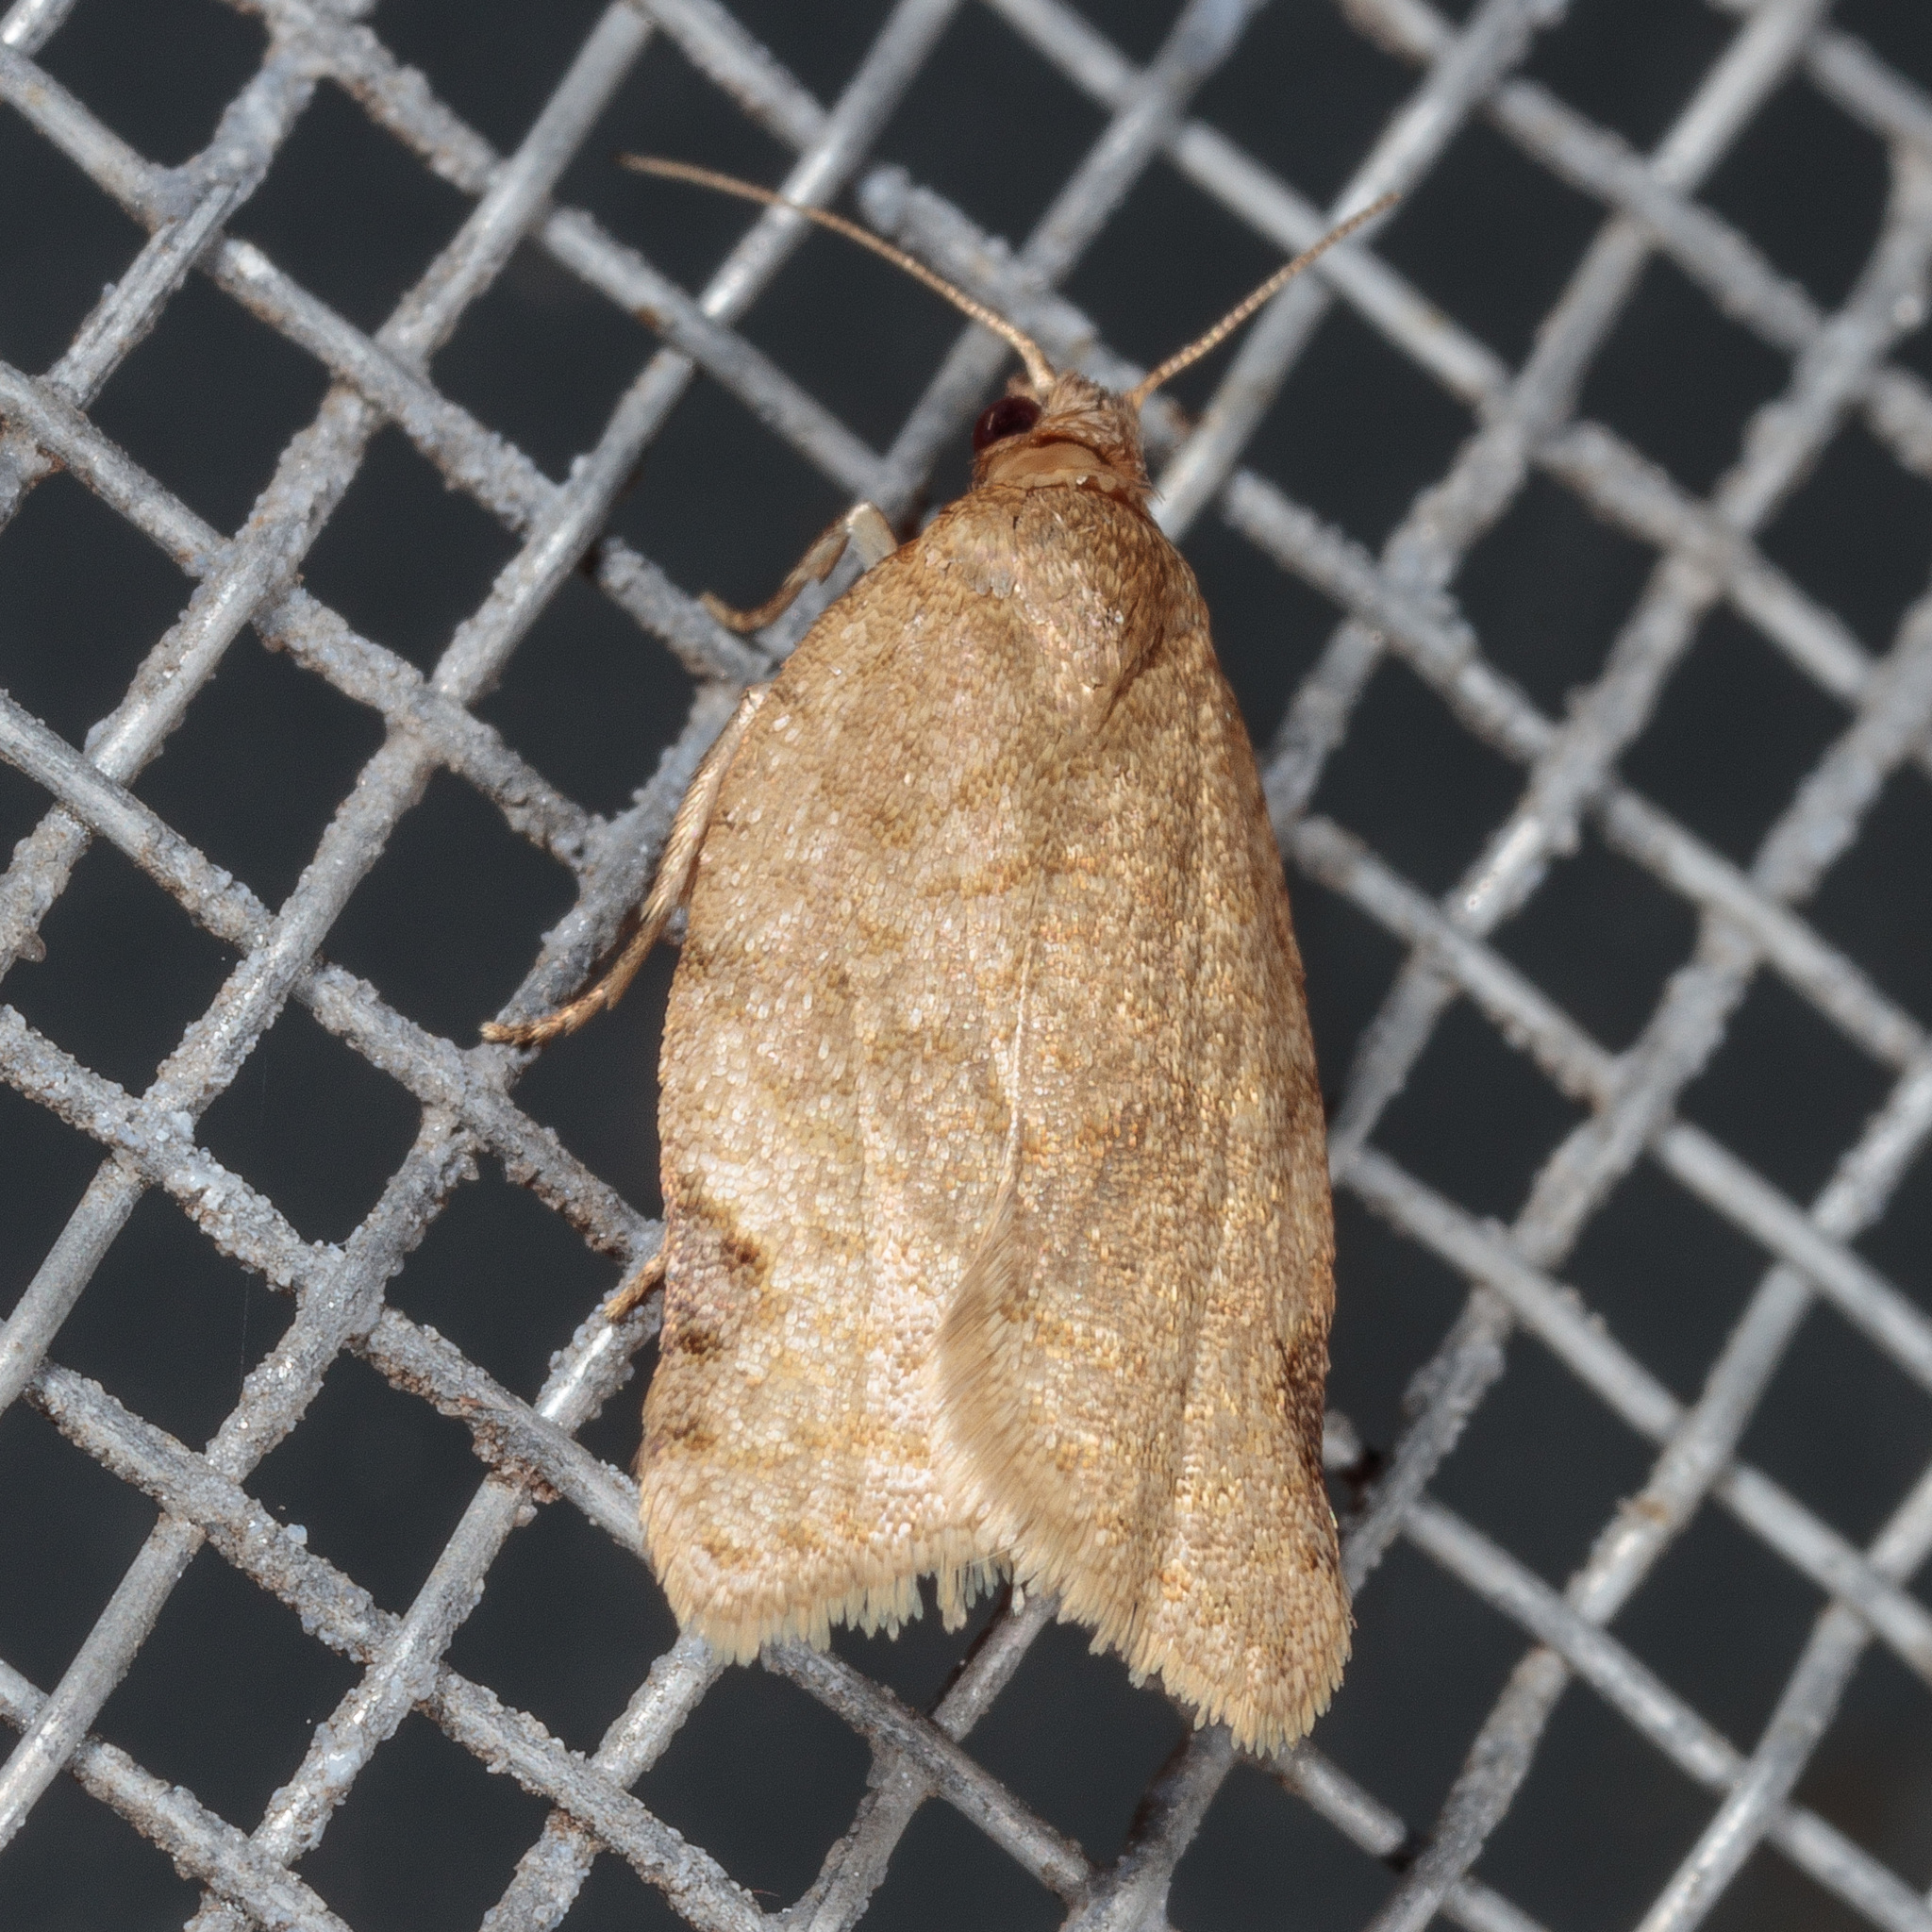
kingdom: Animalia
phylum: Arthropoda
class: Insecta
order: Lepidoptera
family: Tortricidae
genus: Clepsis
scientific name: Clepsis virescana
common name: Greenish apple moth
